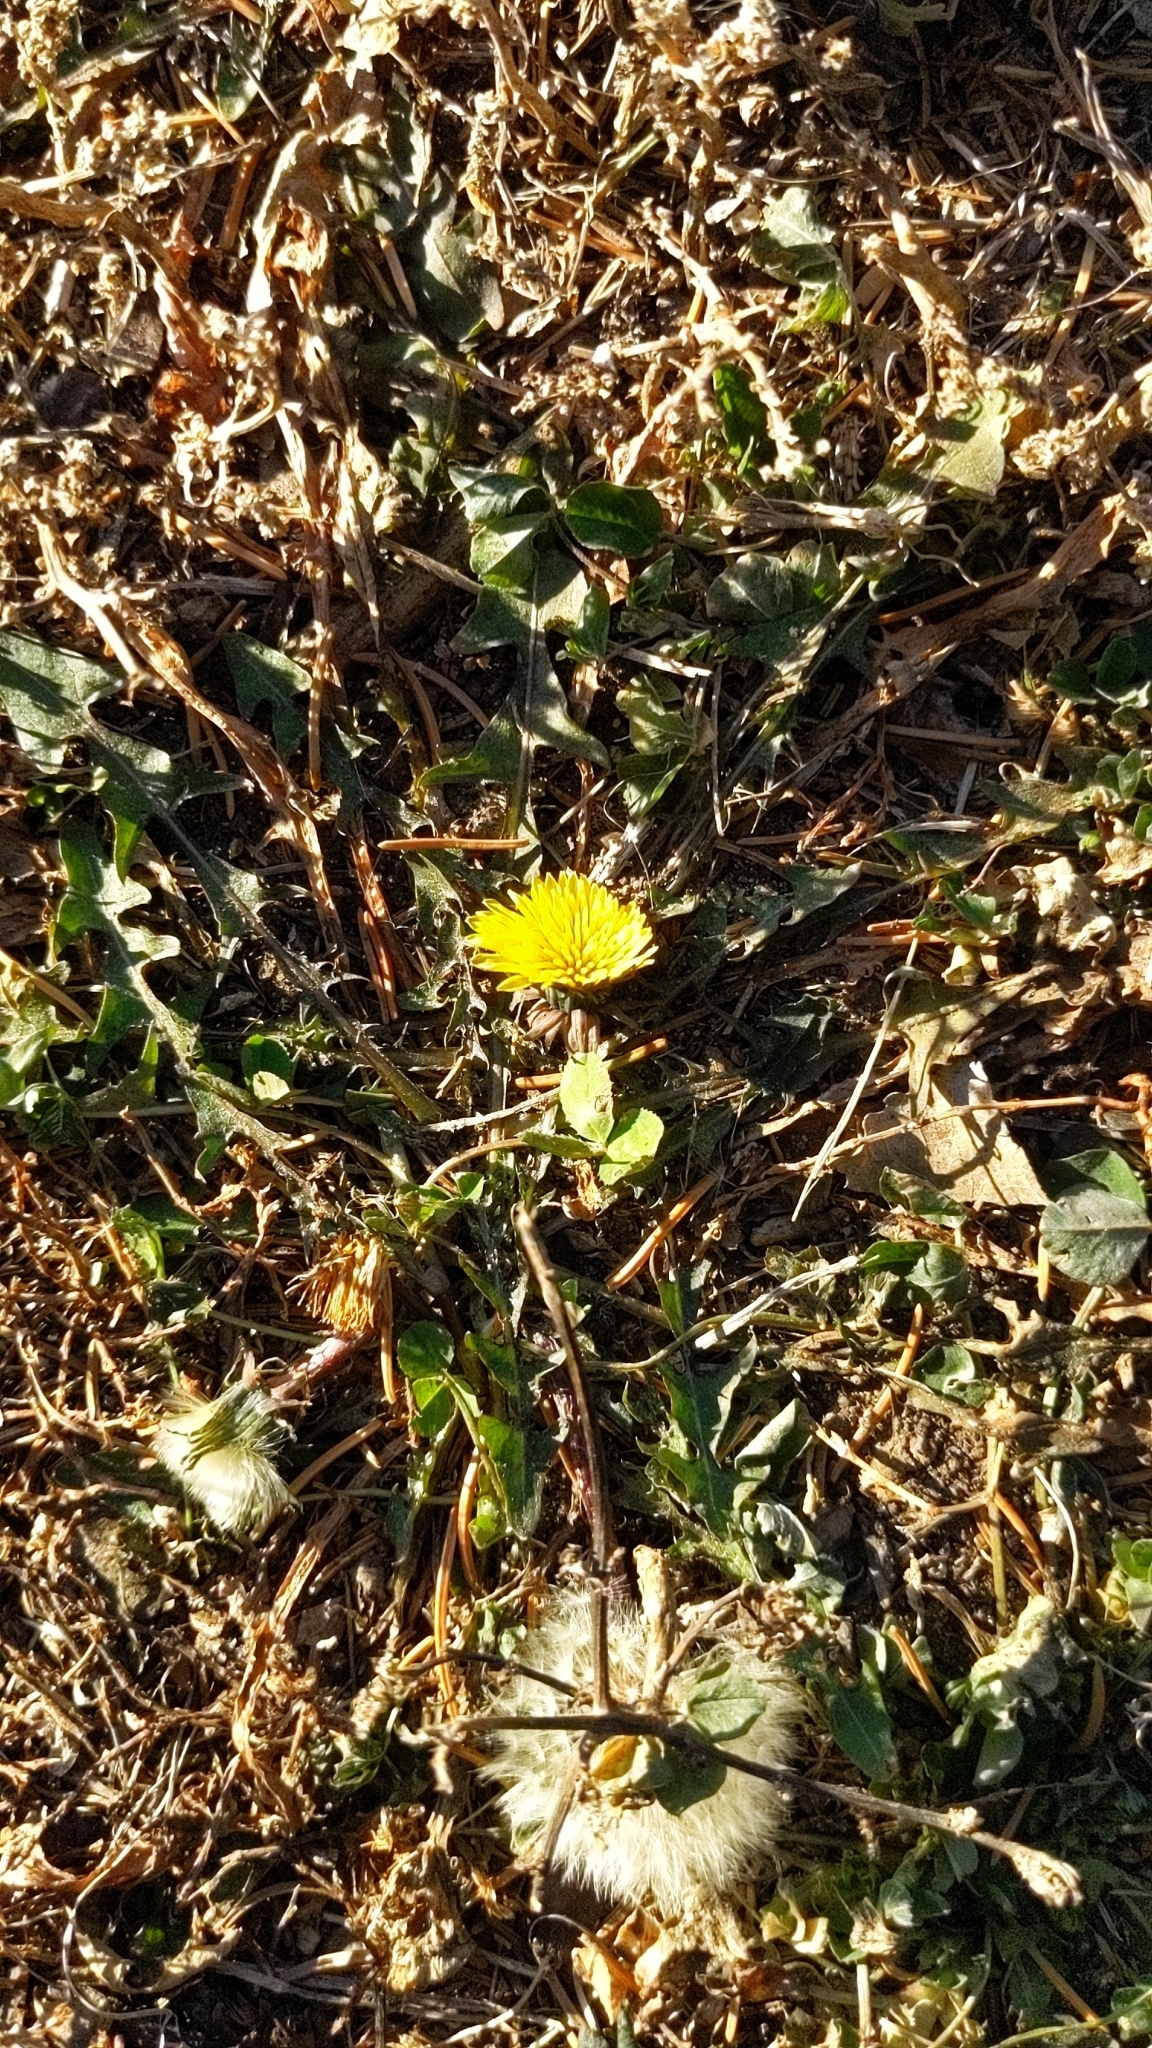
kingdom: Plantae
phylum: Tracheophyta
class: Magnoliopsida
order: Asterales
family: Asteraceae
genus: Taraxacum
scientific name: Taraxacum officinale
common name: Common dandelion
